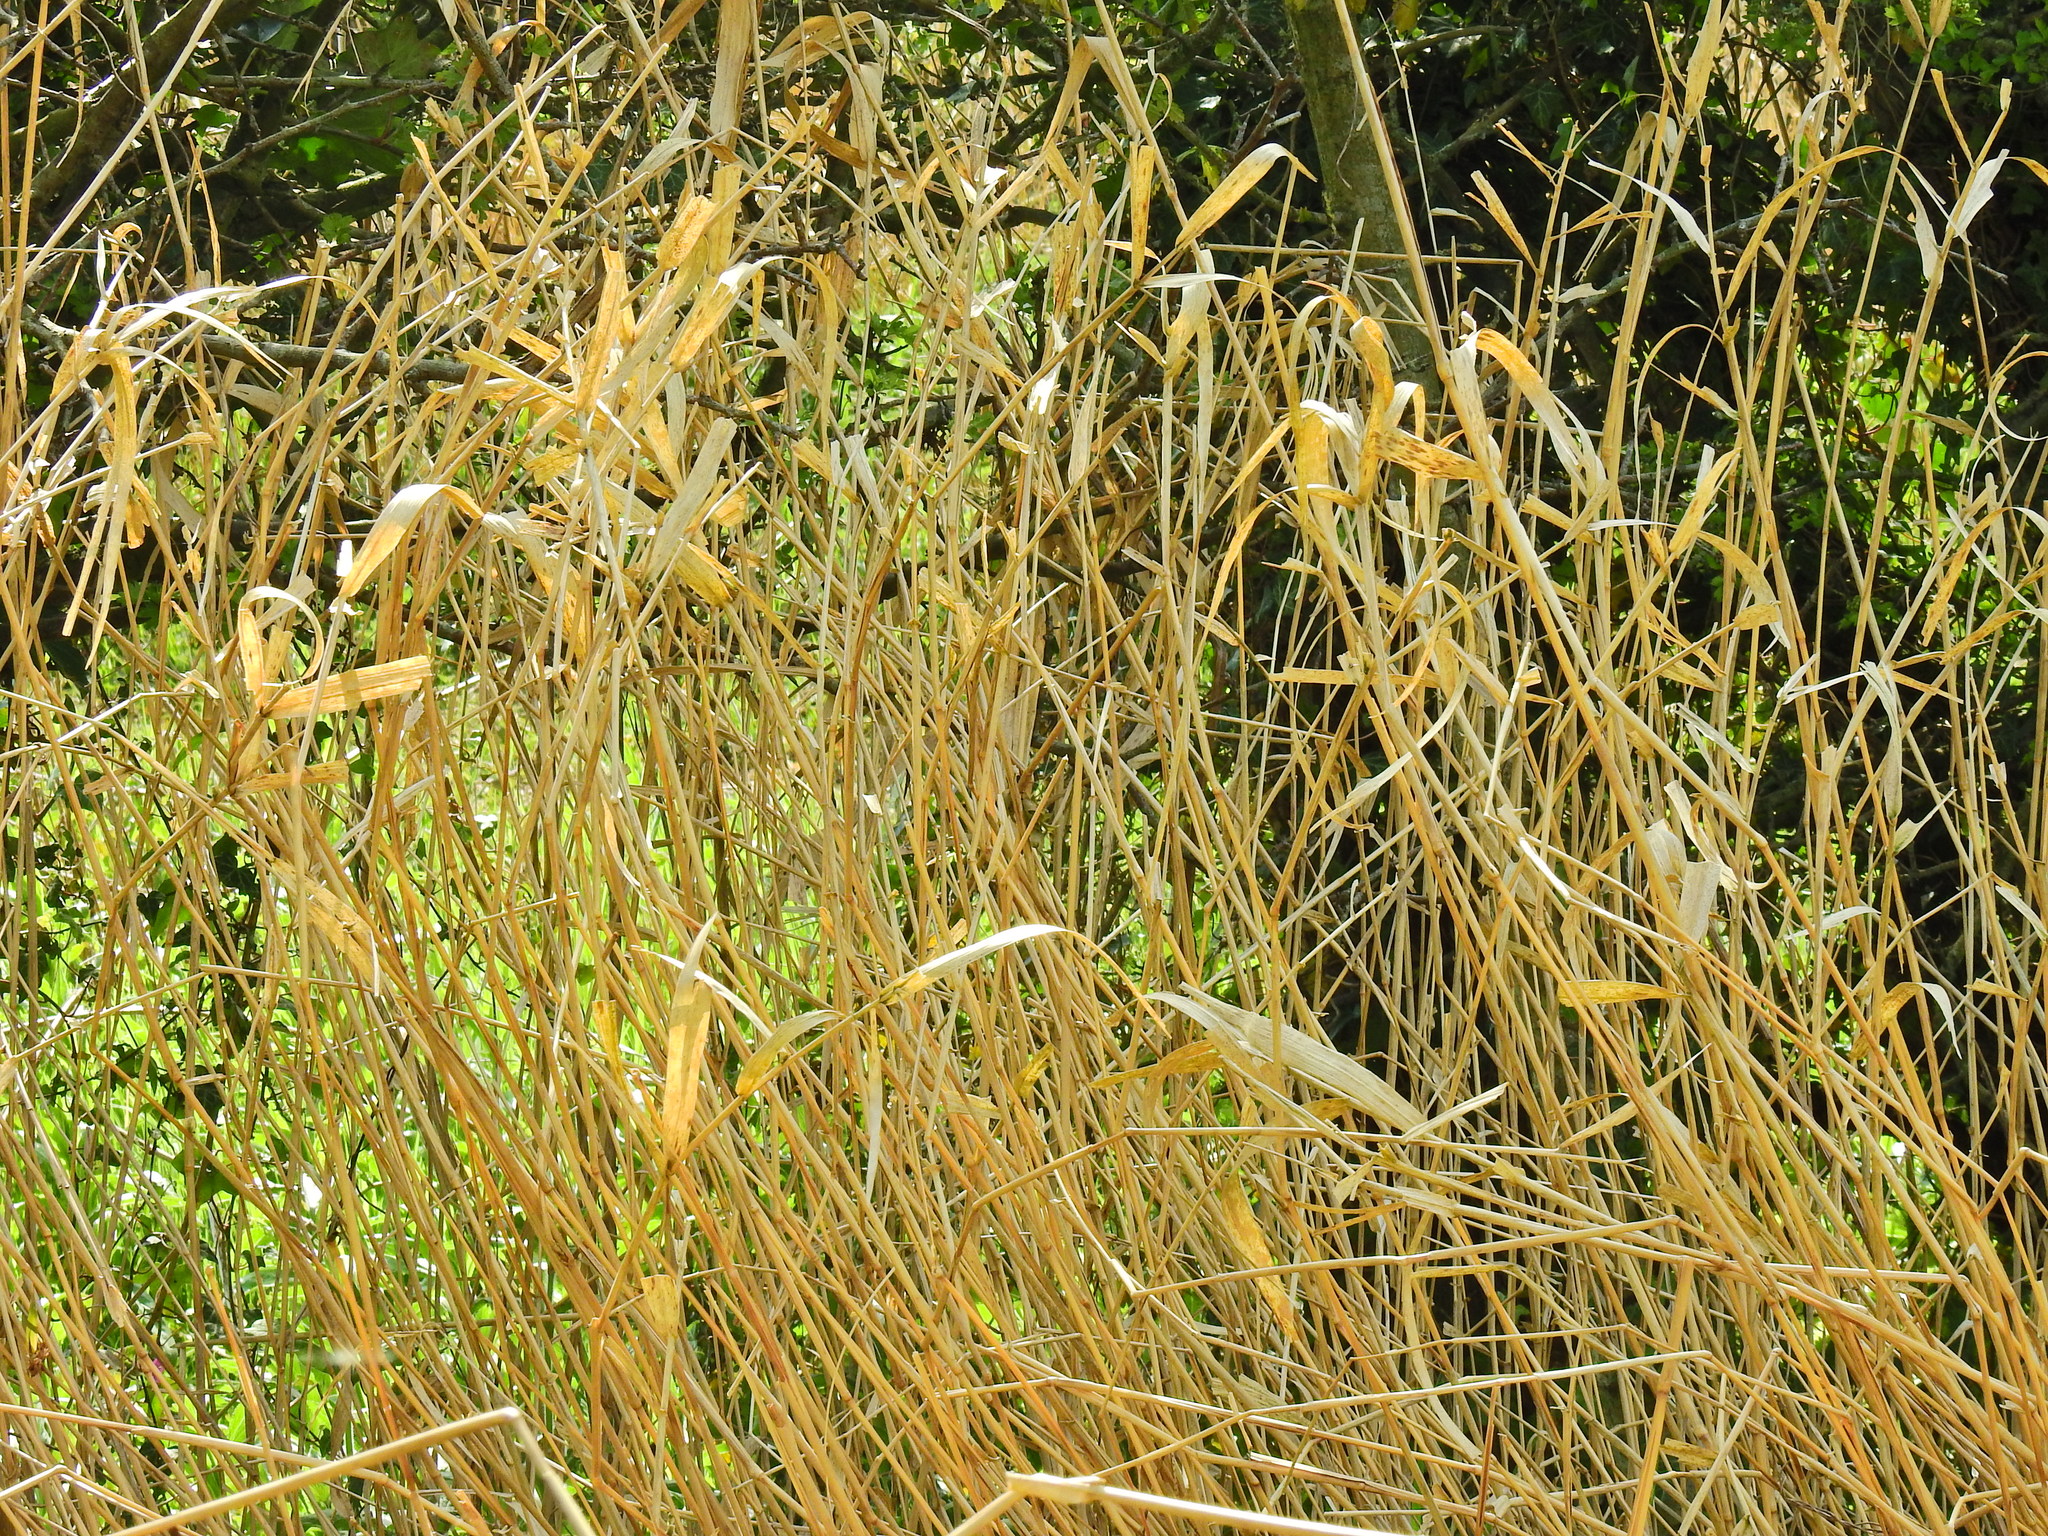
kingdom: Plantae
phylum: Tracheophyta
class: Liliopsida
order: Poales
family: Poaceae
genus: Phalaris
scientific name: Phalaris arundinacea
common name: Reed canary-grass
